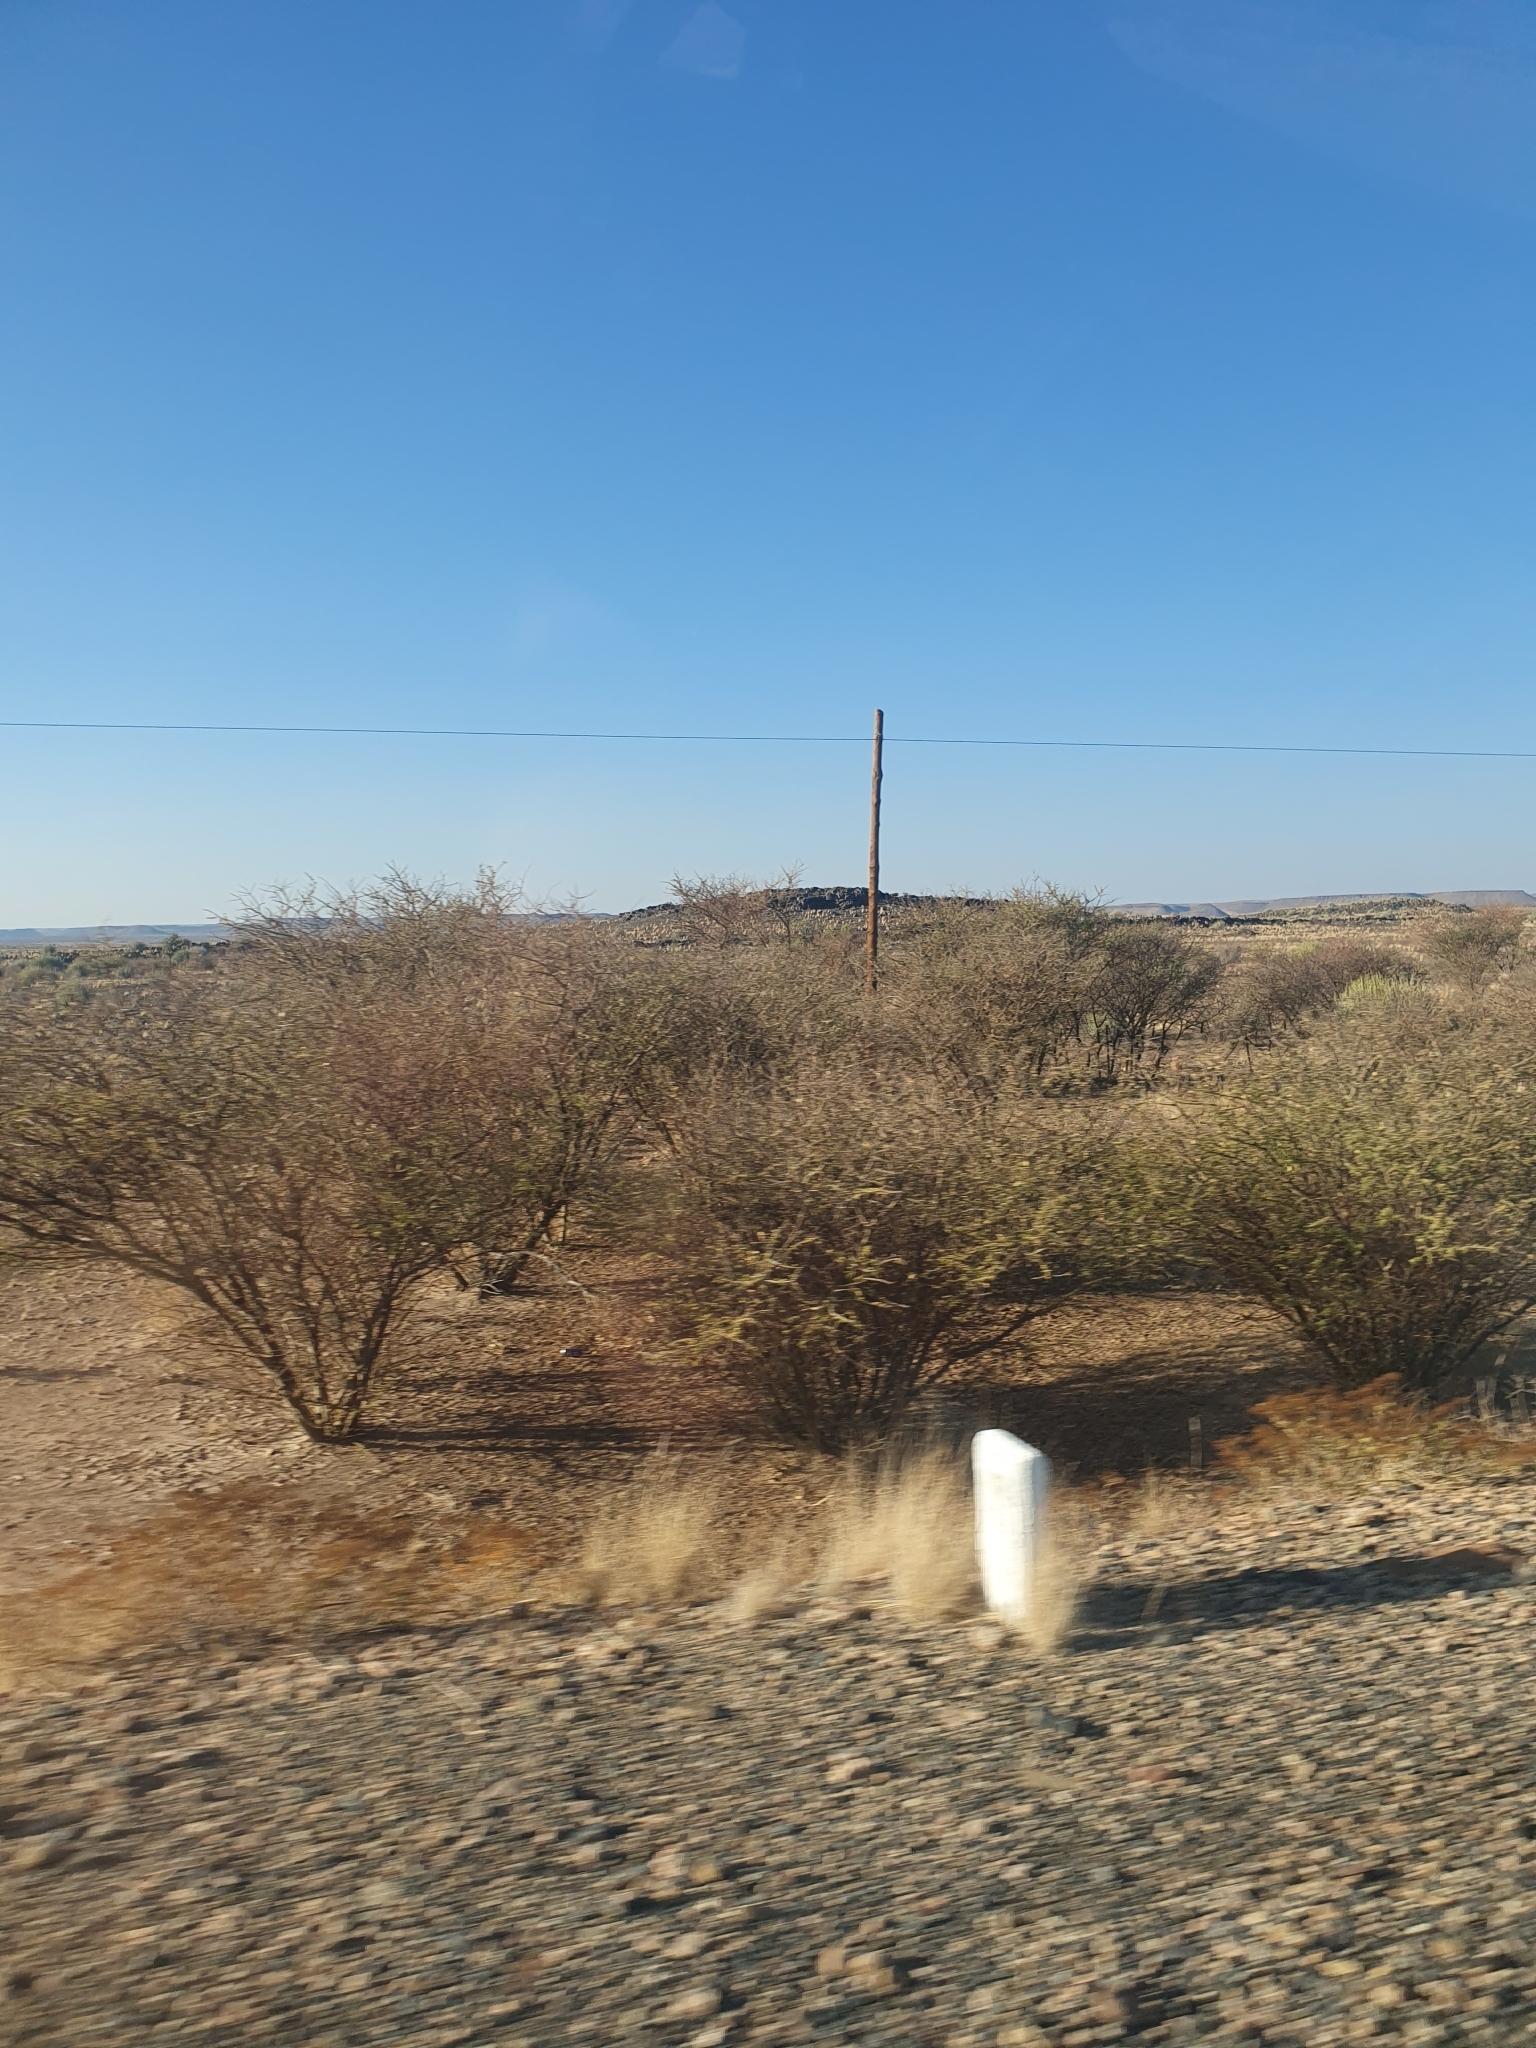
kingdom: Plantae
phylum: Tracheophyta
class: Magnoliopsida
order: Fabales
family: Fabaceae
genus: Senegalia
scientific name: Senegalia mellifera
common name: Hookthorn
